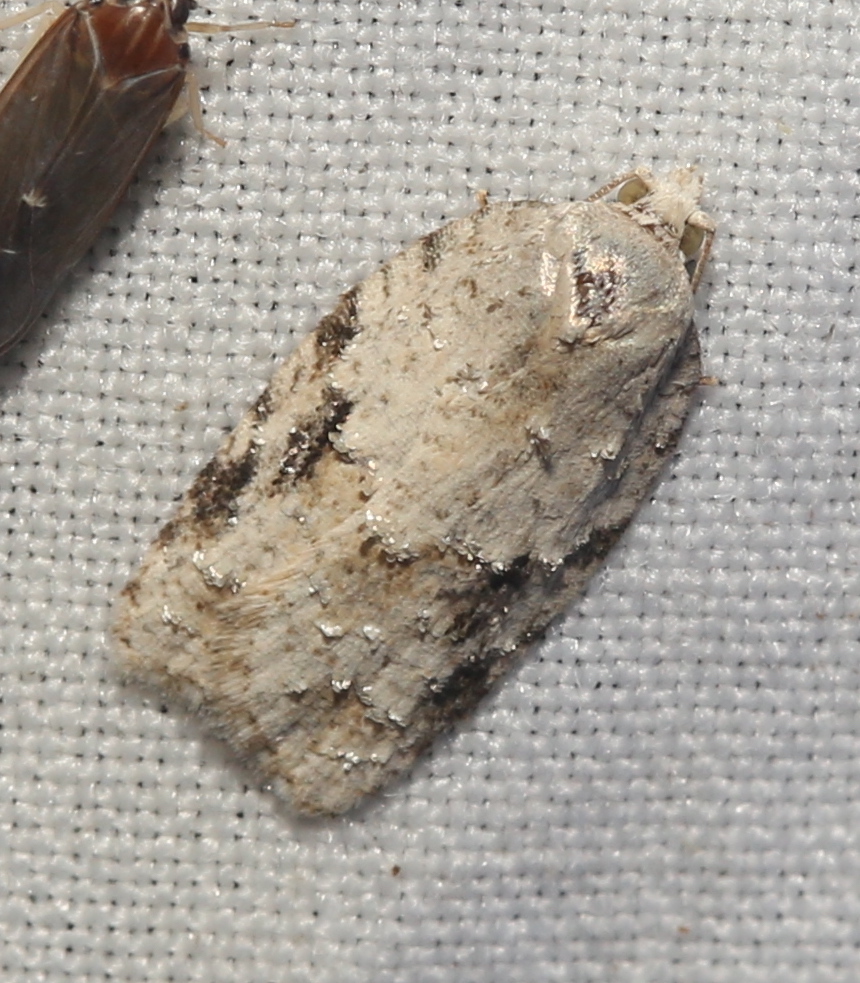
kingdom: Animalia
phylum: Arthropoda
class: Insecta
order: Lepidoptera
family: Tortricidae
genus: Acleris
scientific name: Acleris placidana
